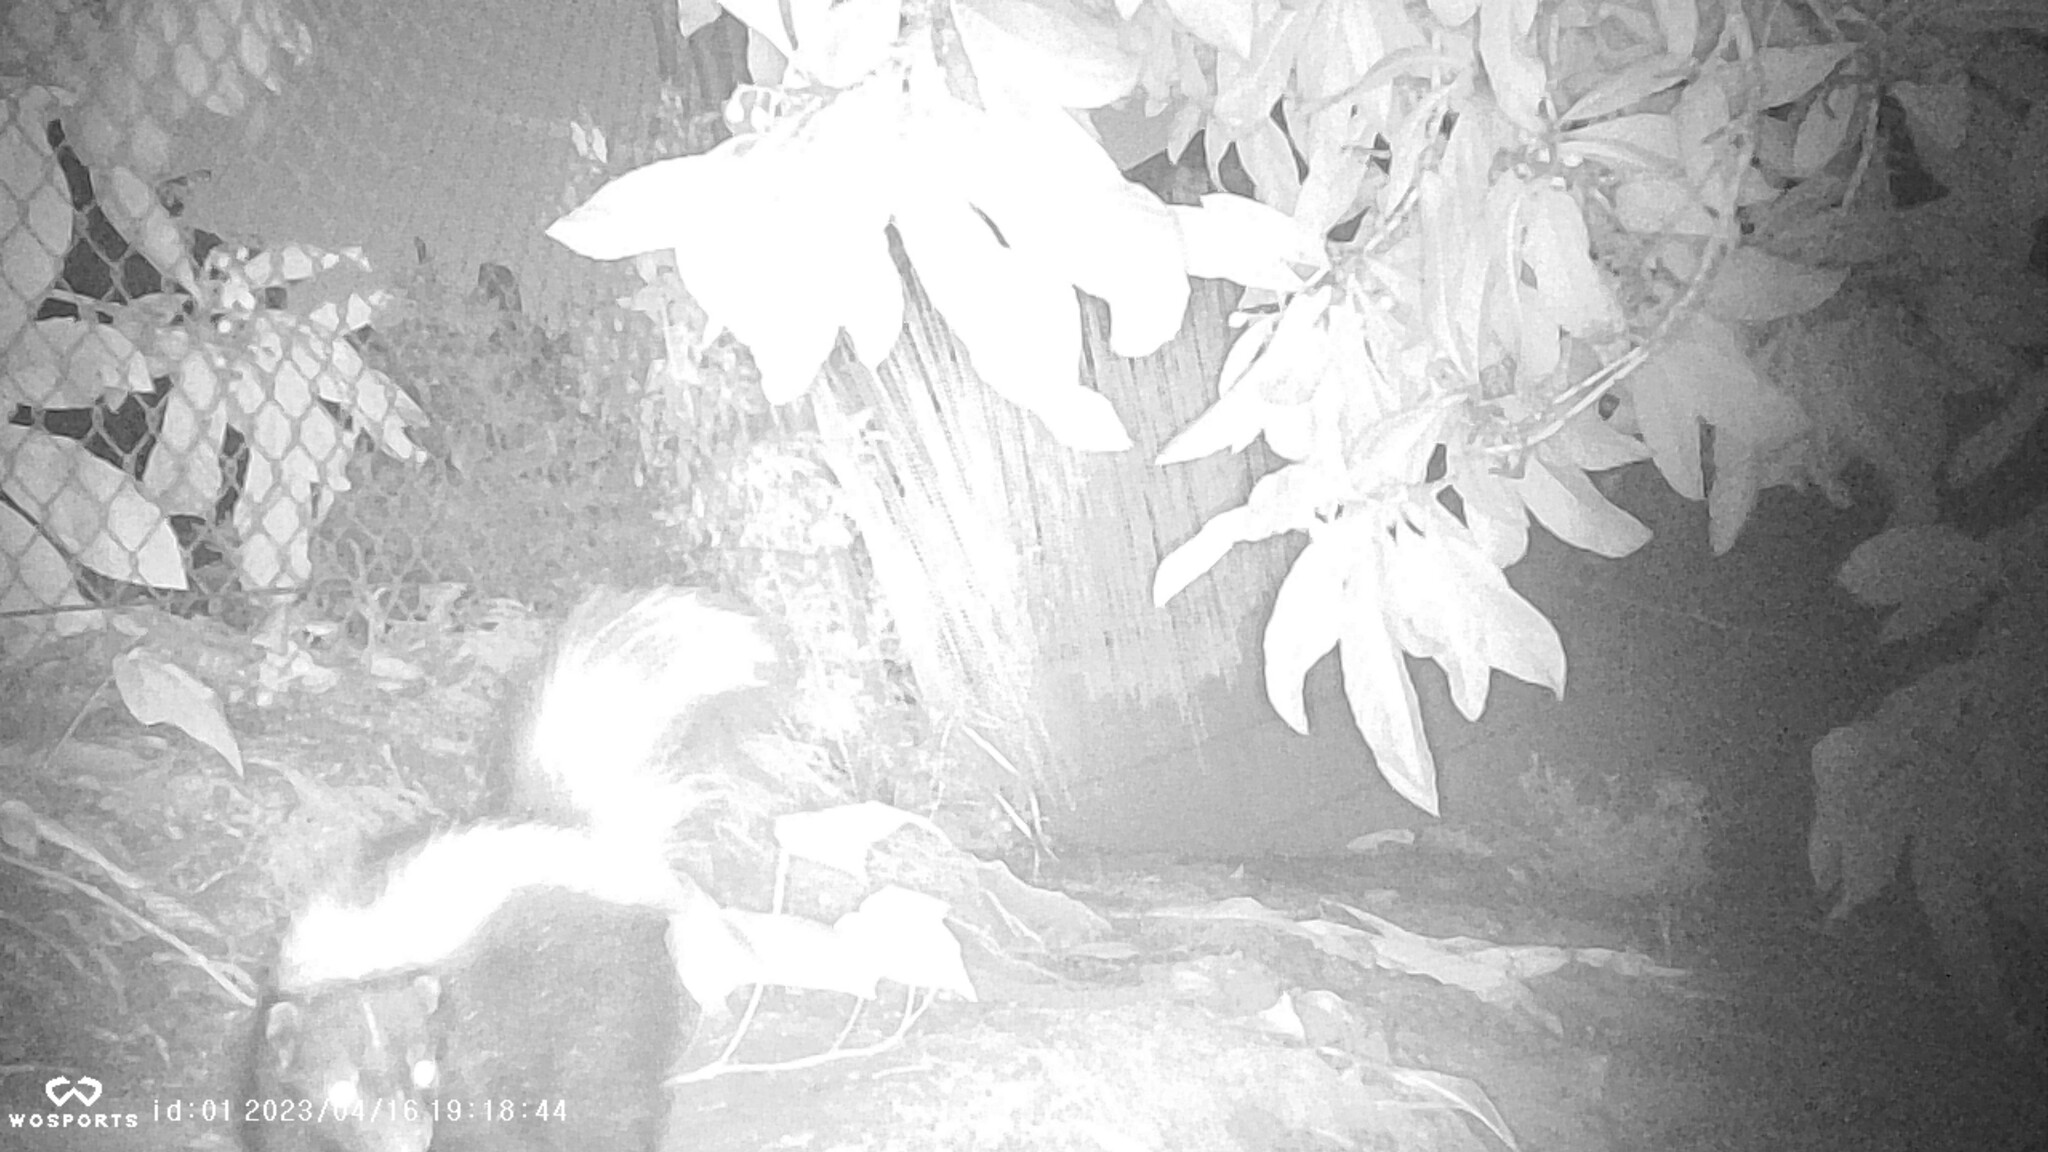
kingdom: Animalia
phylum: Chordata
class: Mammalia
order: Carnivora
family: Mephitidae
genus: Mephitis
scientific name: Mephitis mephitis
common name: Striped skunk
